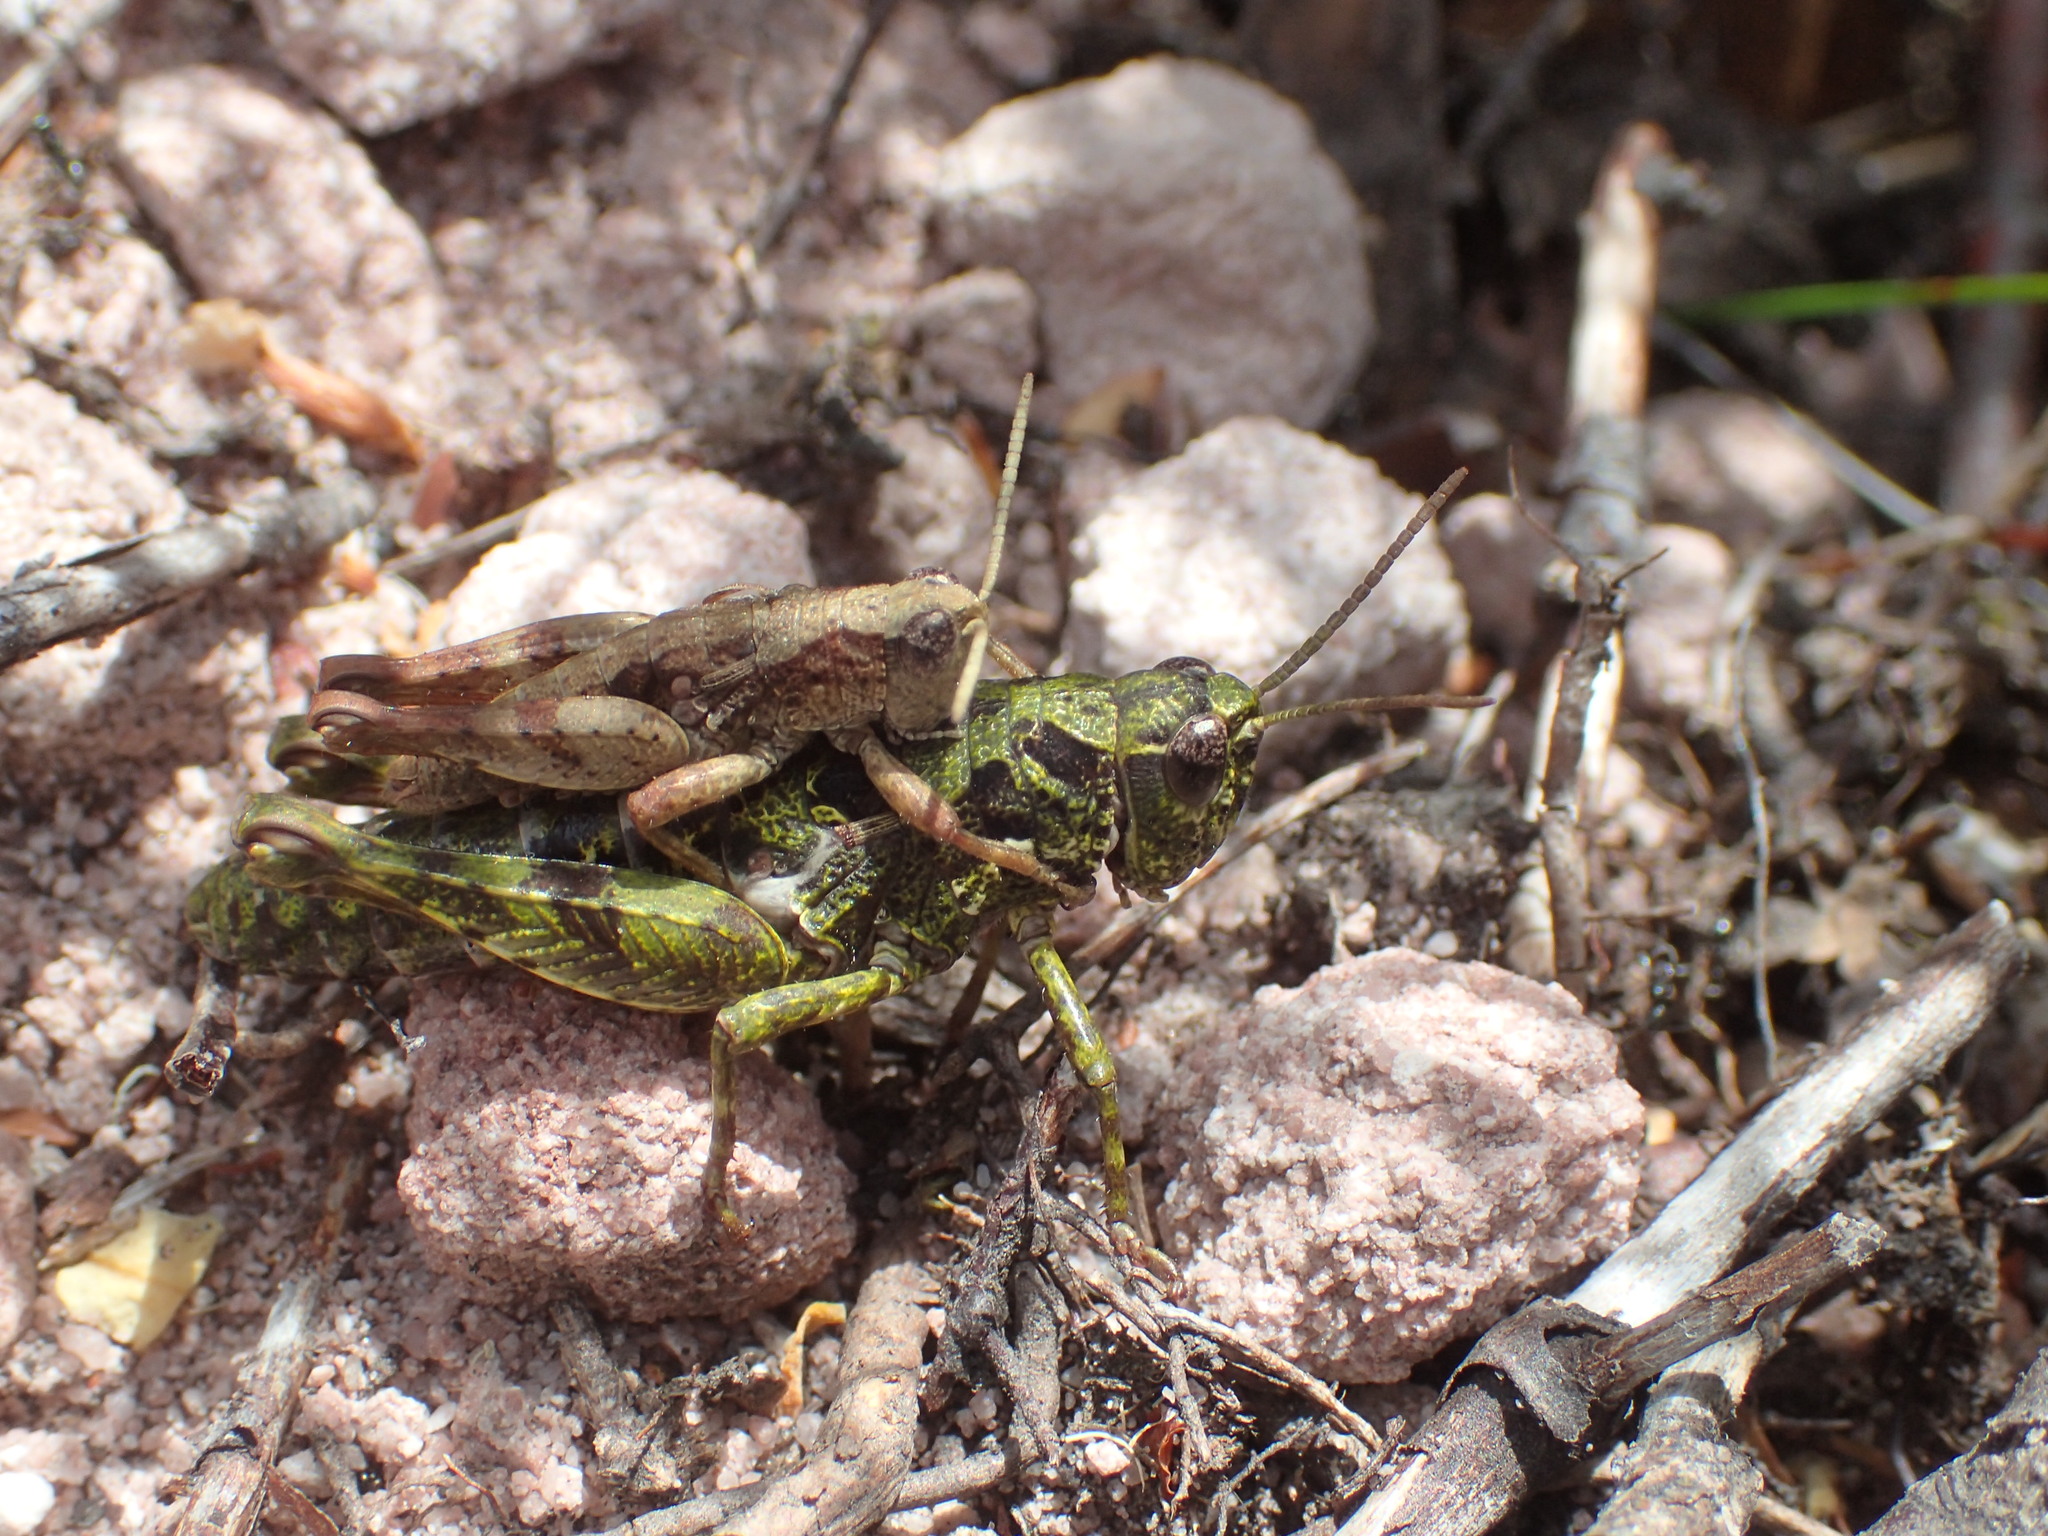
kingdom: Animalia
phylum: Arthropoda
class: Insecta
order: Orthoptera
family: Acrididae
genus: Tasmaniacris
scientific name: Tasmaniacris tasmaniensis
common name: Tasmanian grasshopper
